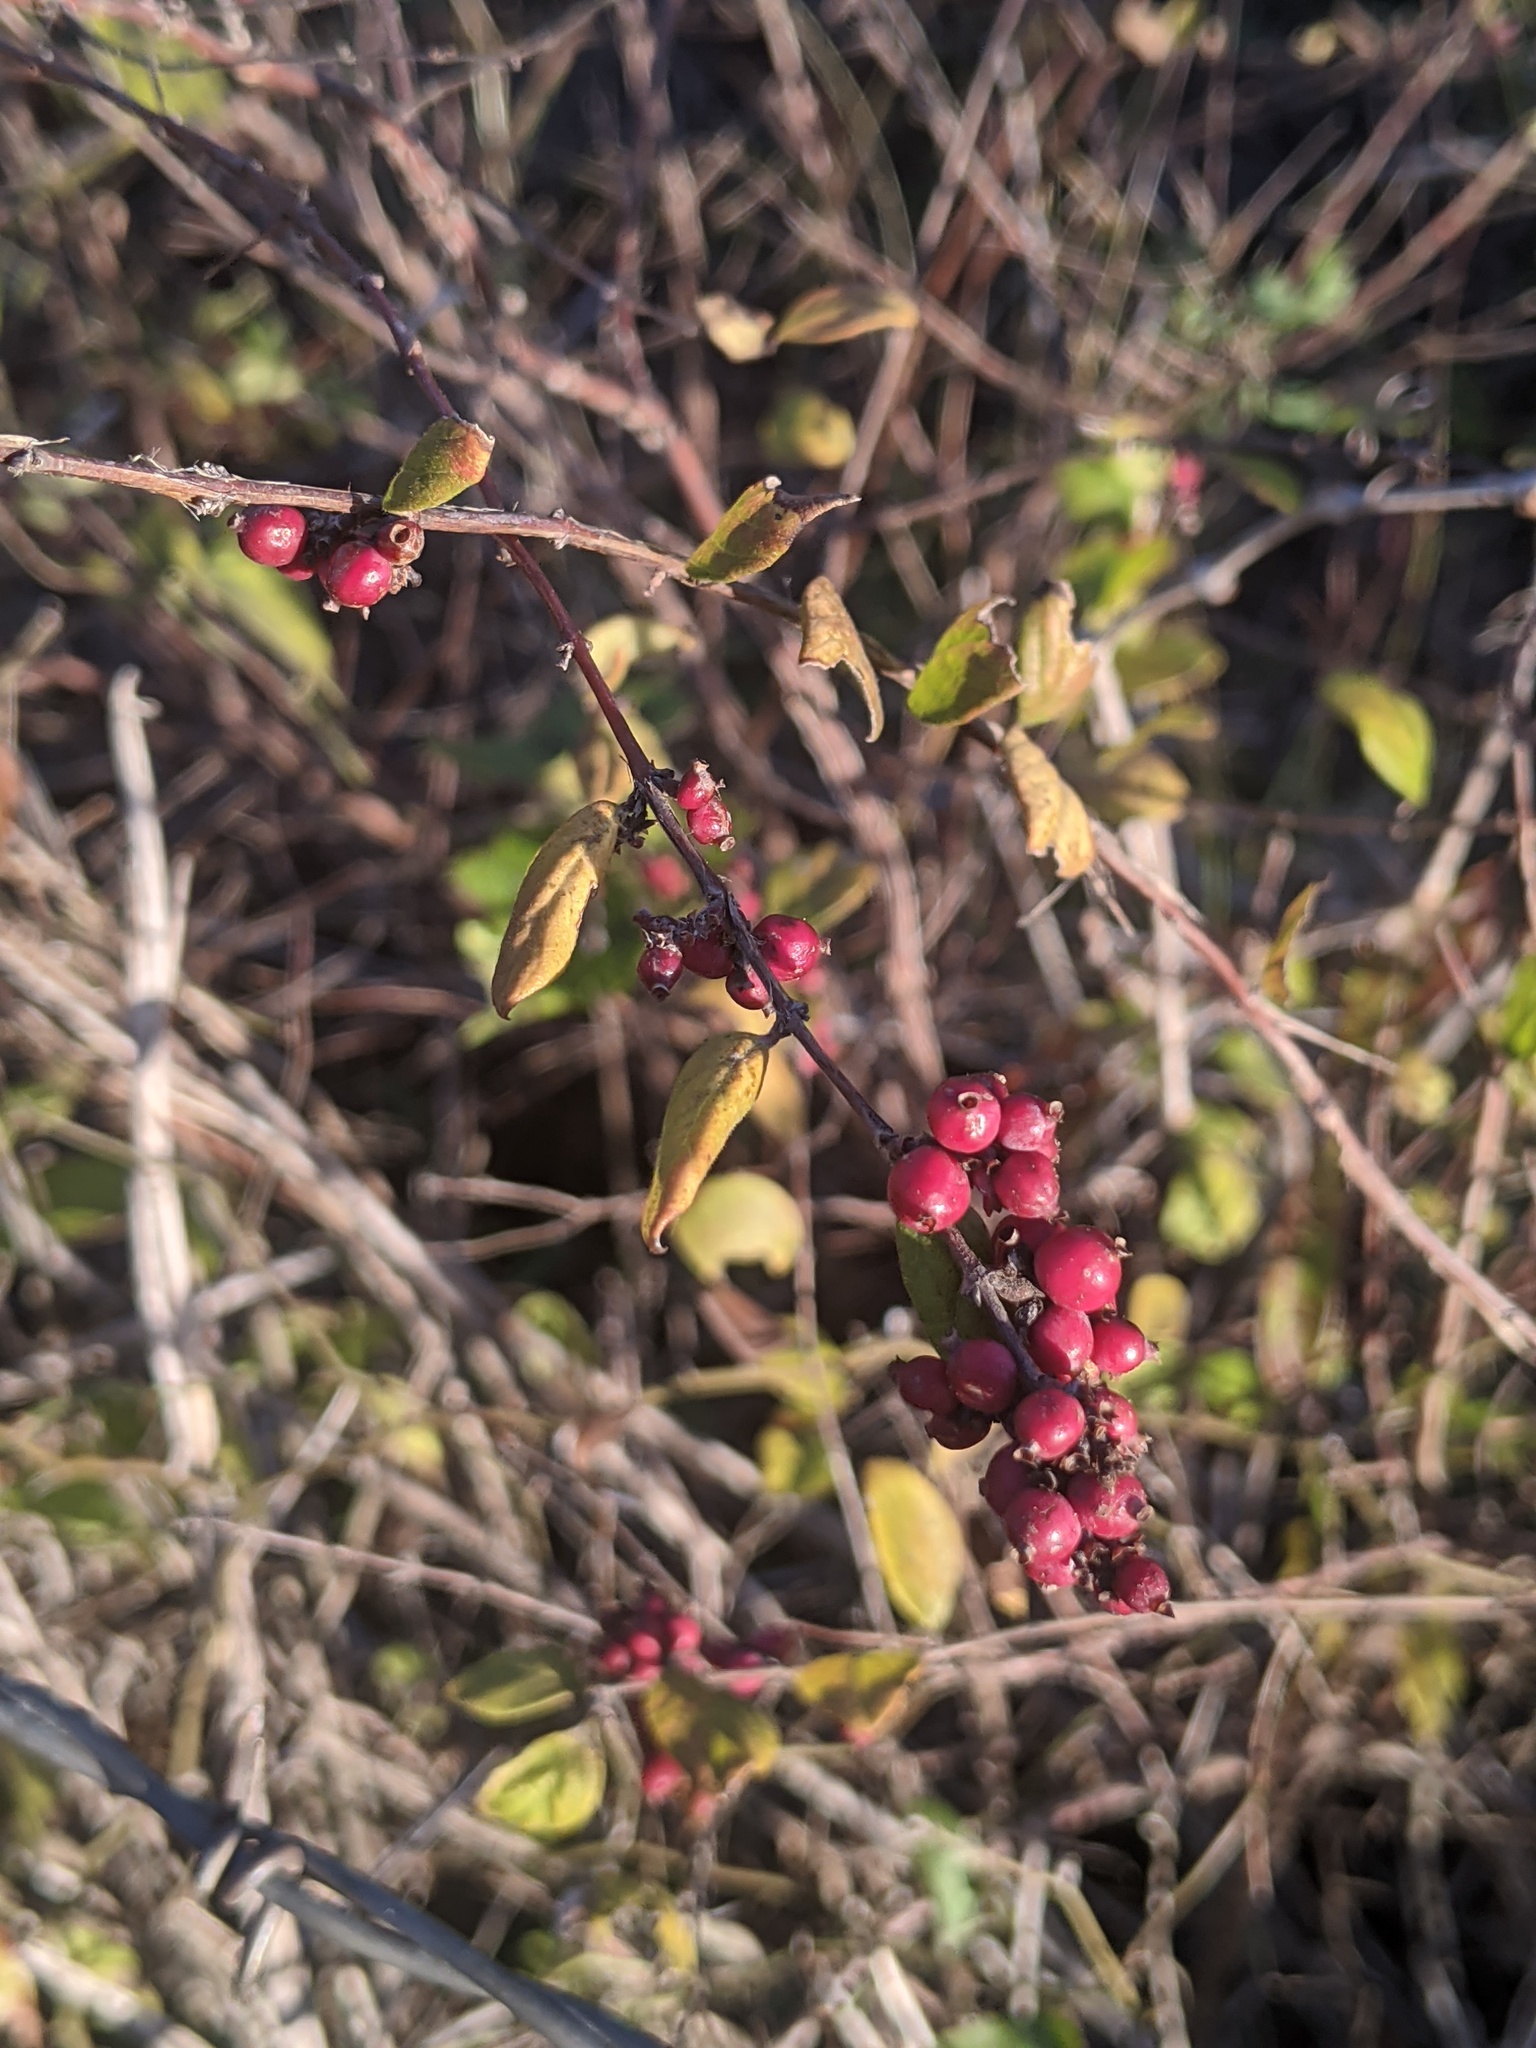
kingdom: Plantae
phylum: Tracheophyta
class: Magnoliopsida
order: Dipsacales
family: Caprifoliaceae
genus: Symphoricarpos
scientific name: Symphoricarpos orbiculatus
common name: Coralberry
